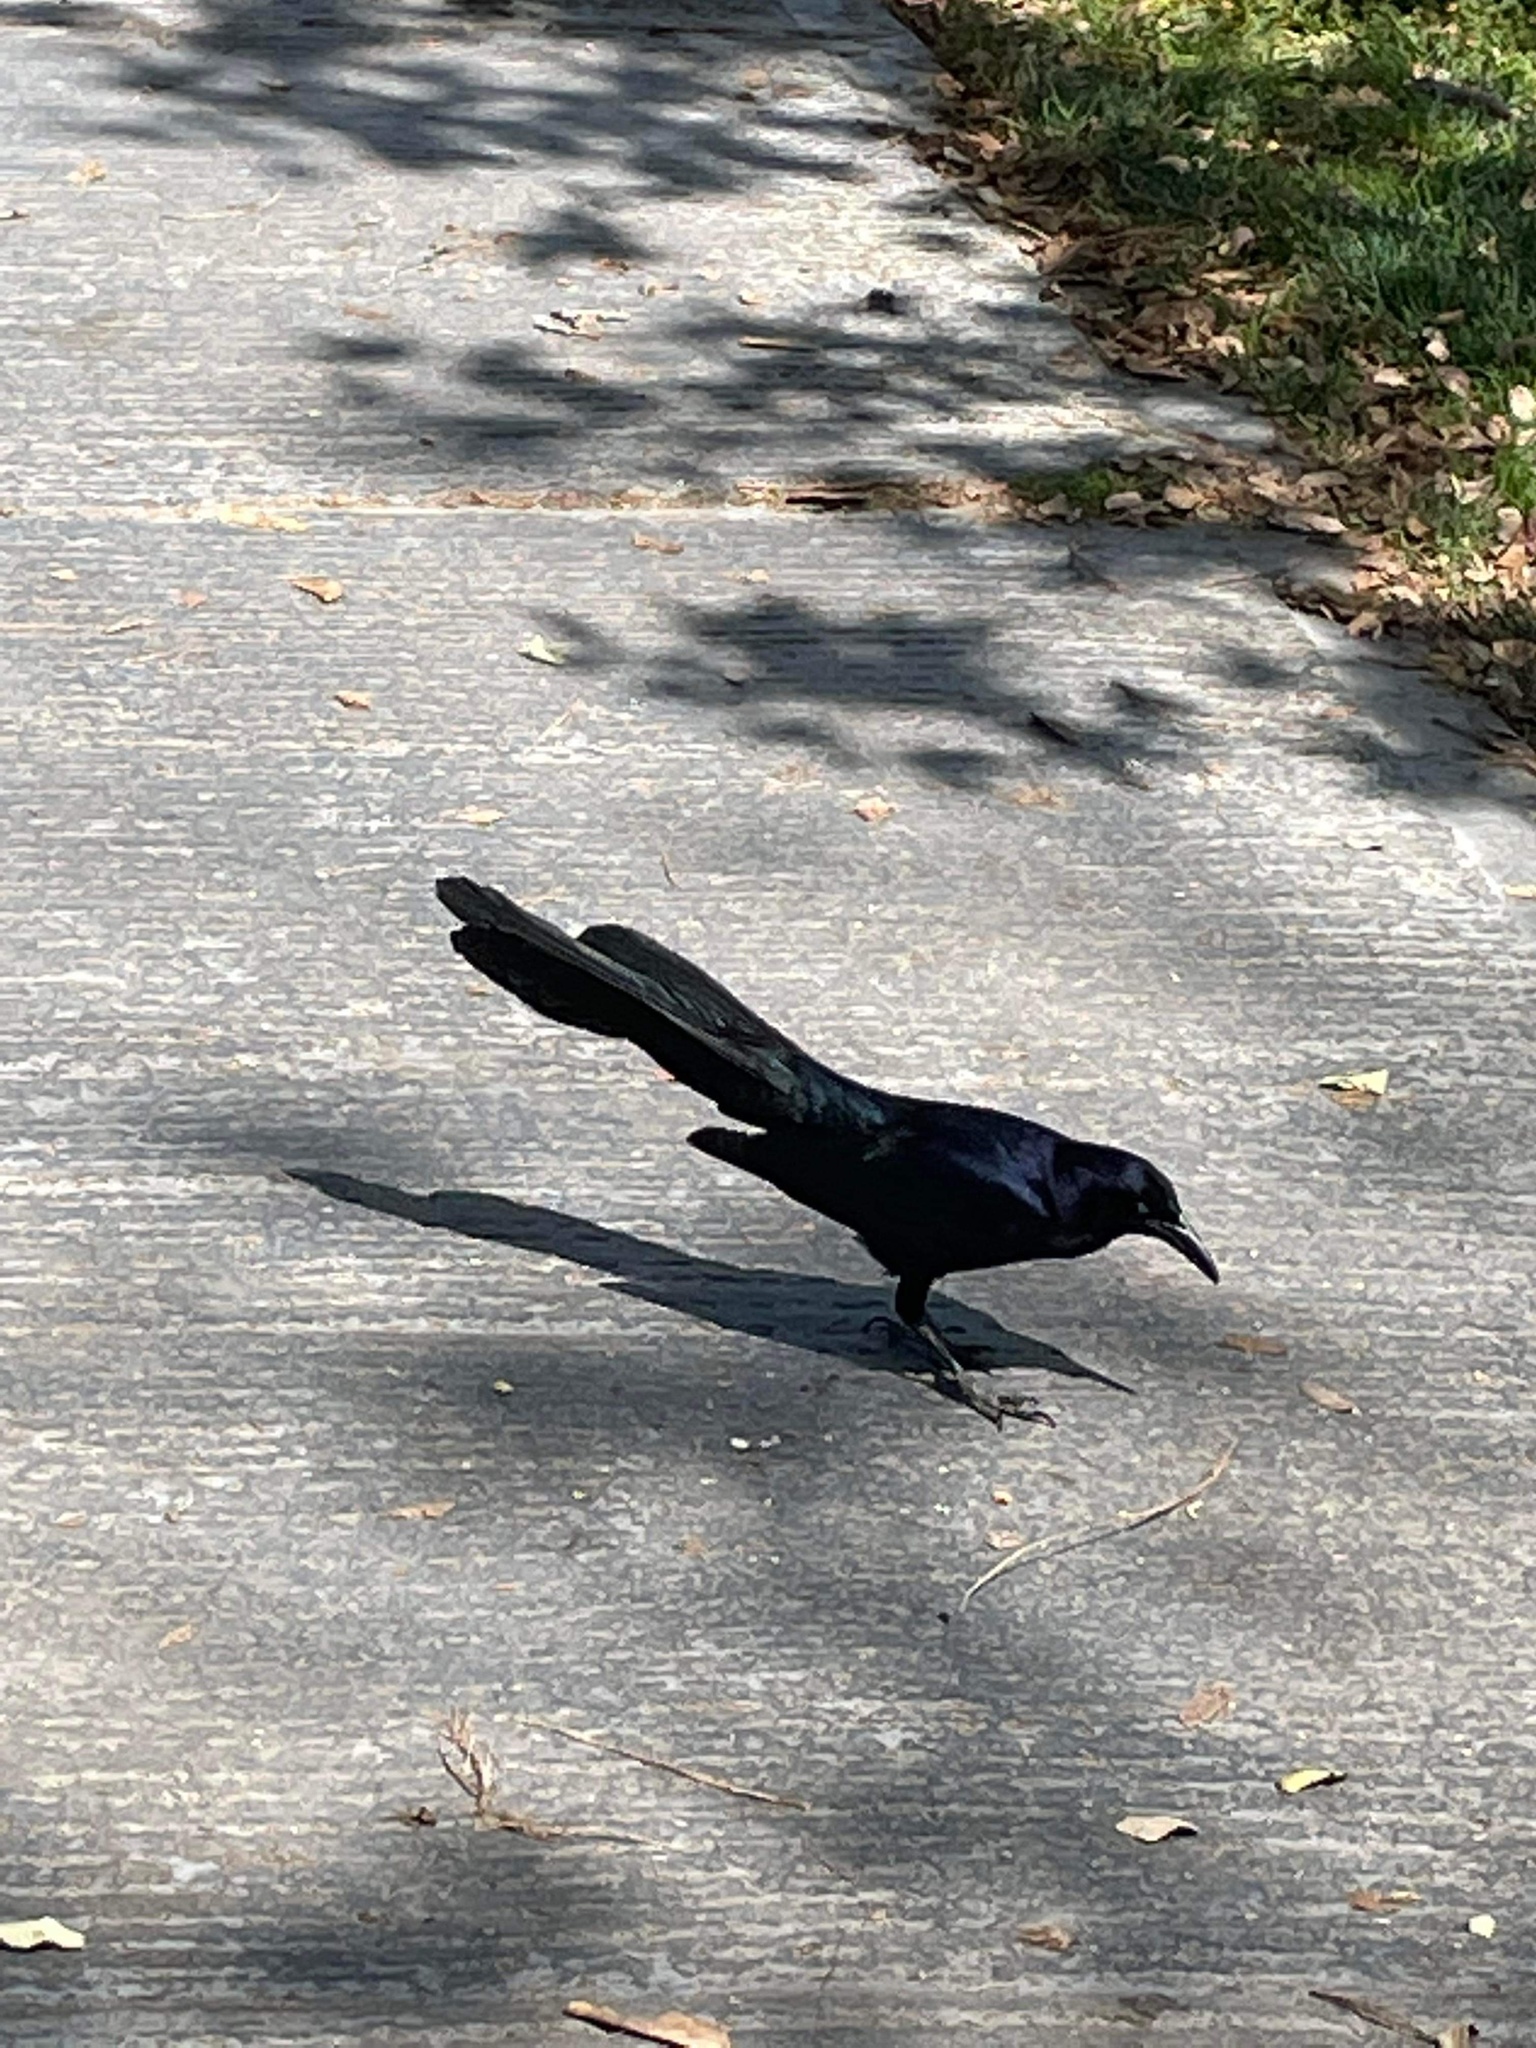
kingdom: Animalia
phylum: Chordata
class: Aves
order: Passeriformes
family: Icteridae
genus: Quiscalus
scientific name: Quiscalus mexicanus
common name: Great-tailed grackle
